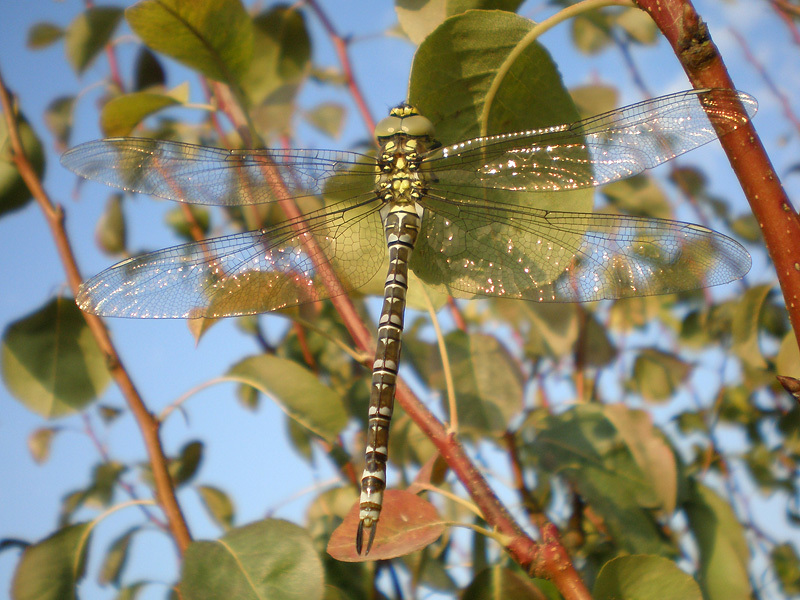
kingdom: Animalia
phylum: Arthropoda
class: Insecta
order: Odonata
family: Aeshnidae
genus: Aeshna
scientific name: Aeshna cyanea
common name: Southern hawker
